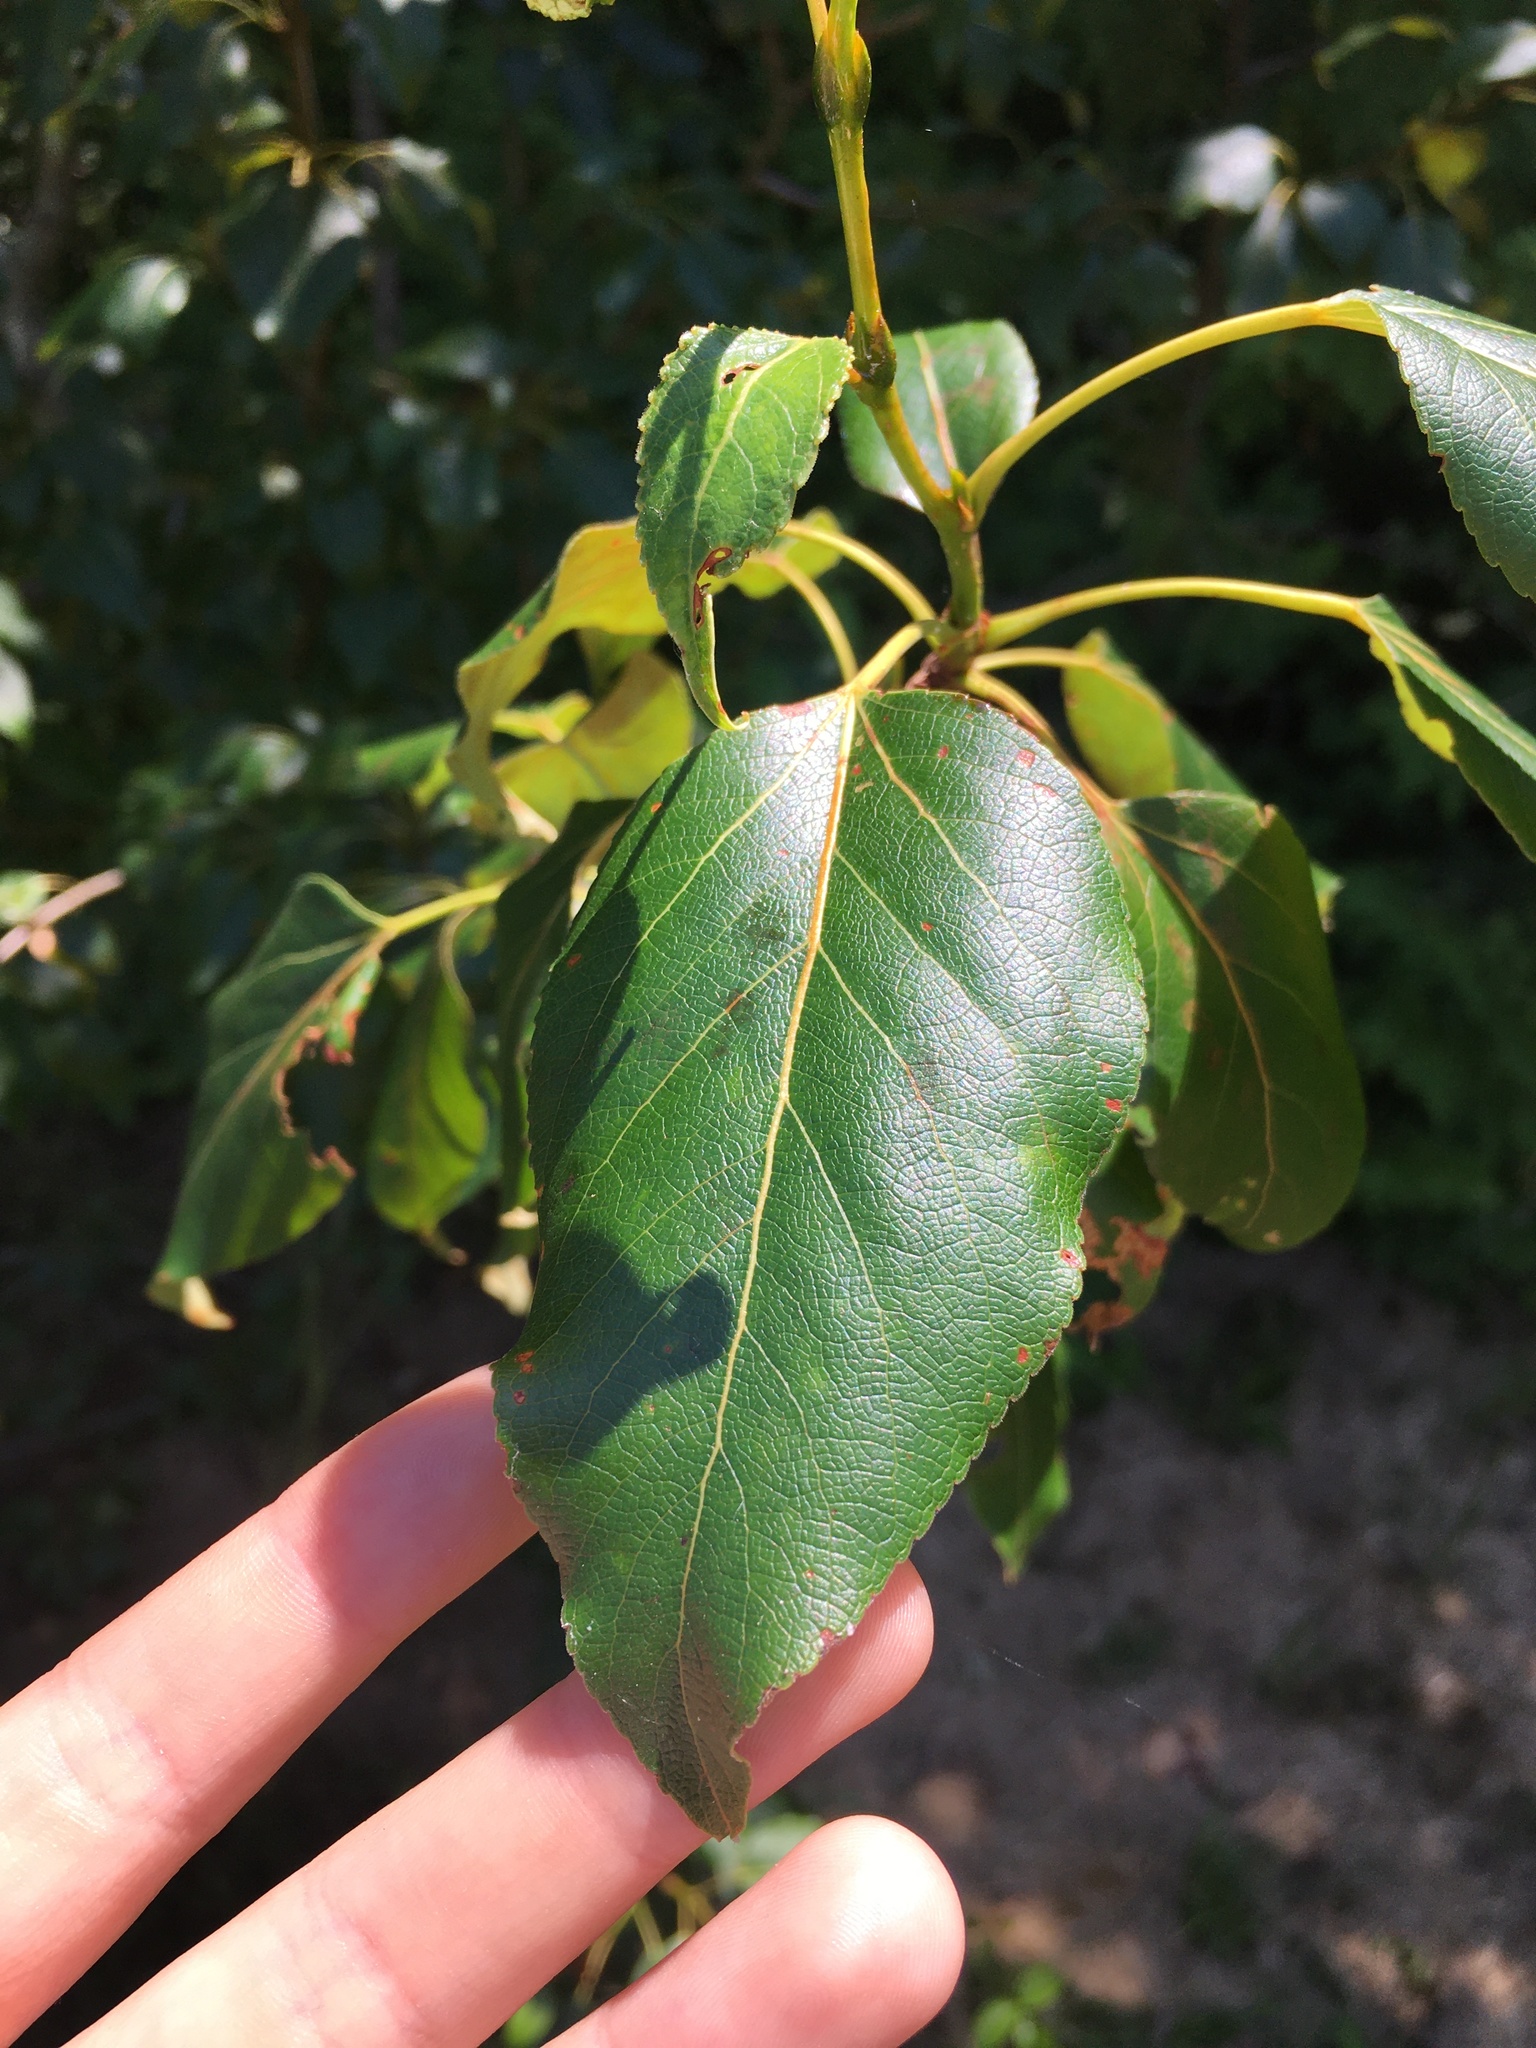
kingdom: Plantae
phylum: Tracheophyta
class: Magnoliopsida
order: Malpighiales
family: Salicaceae
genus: Populus
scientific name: Populus balsamifera
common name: Balsam poplar
